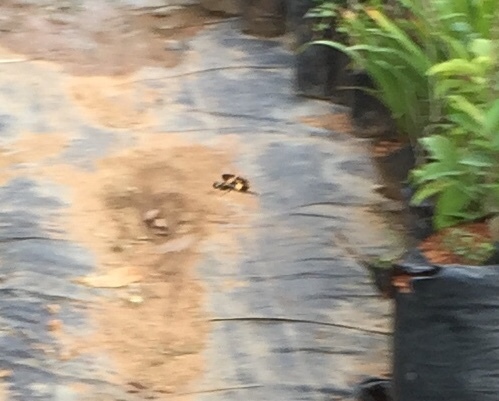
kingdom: Animalia
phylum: Arthropoda
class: Insecta
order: Odonata
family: Libellulidae
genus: Rhyothemis
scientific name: Rhyothemis variegata
